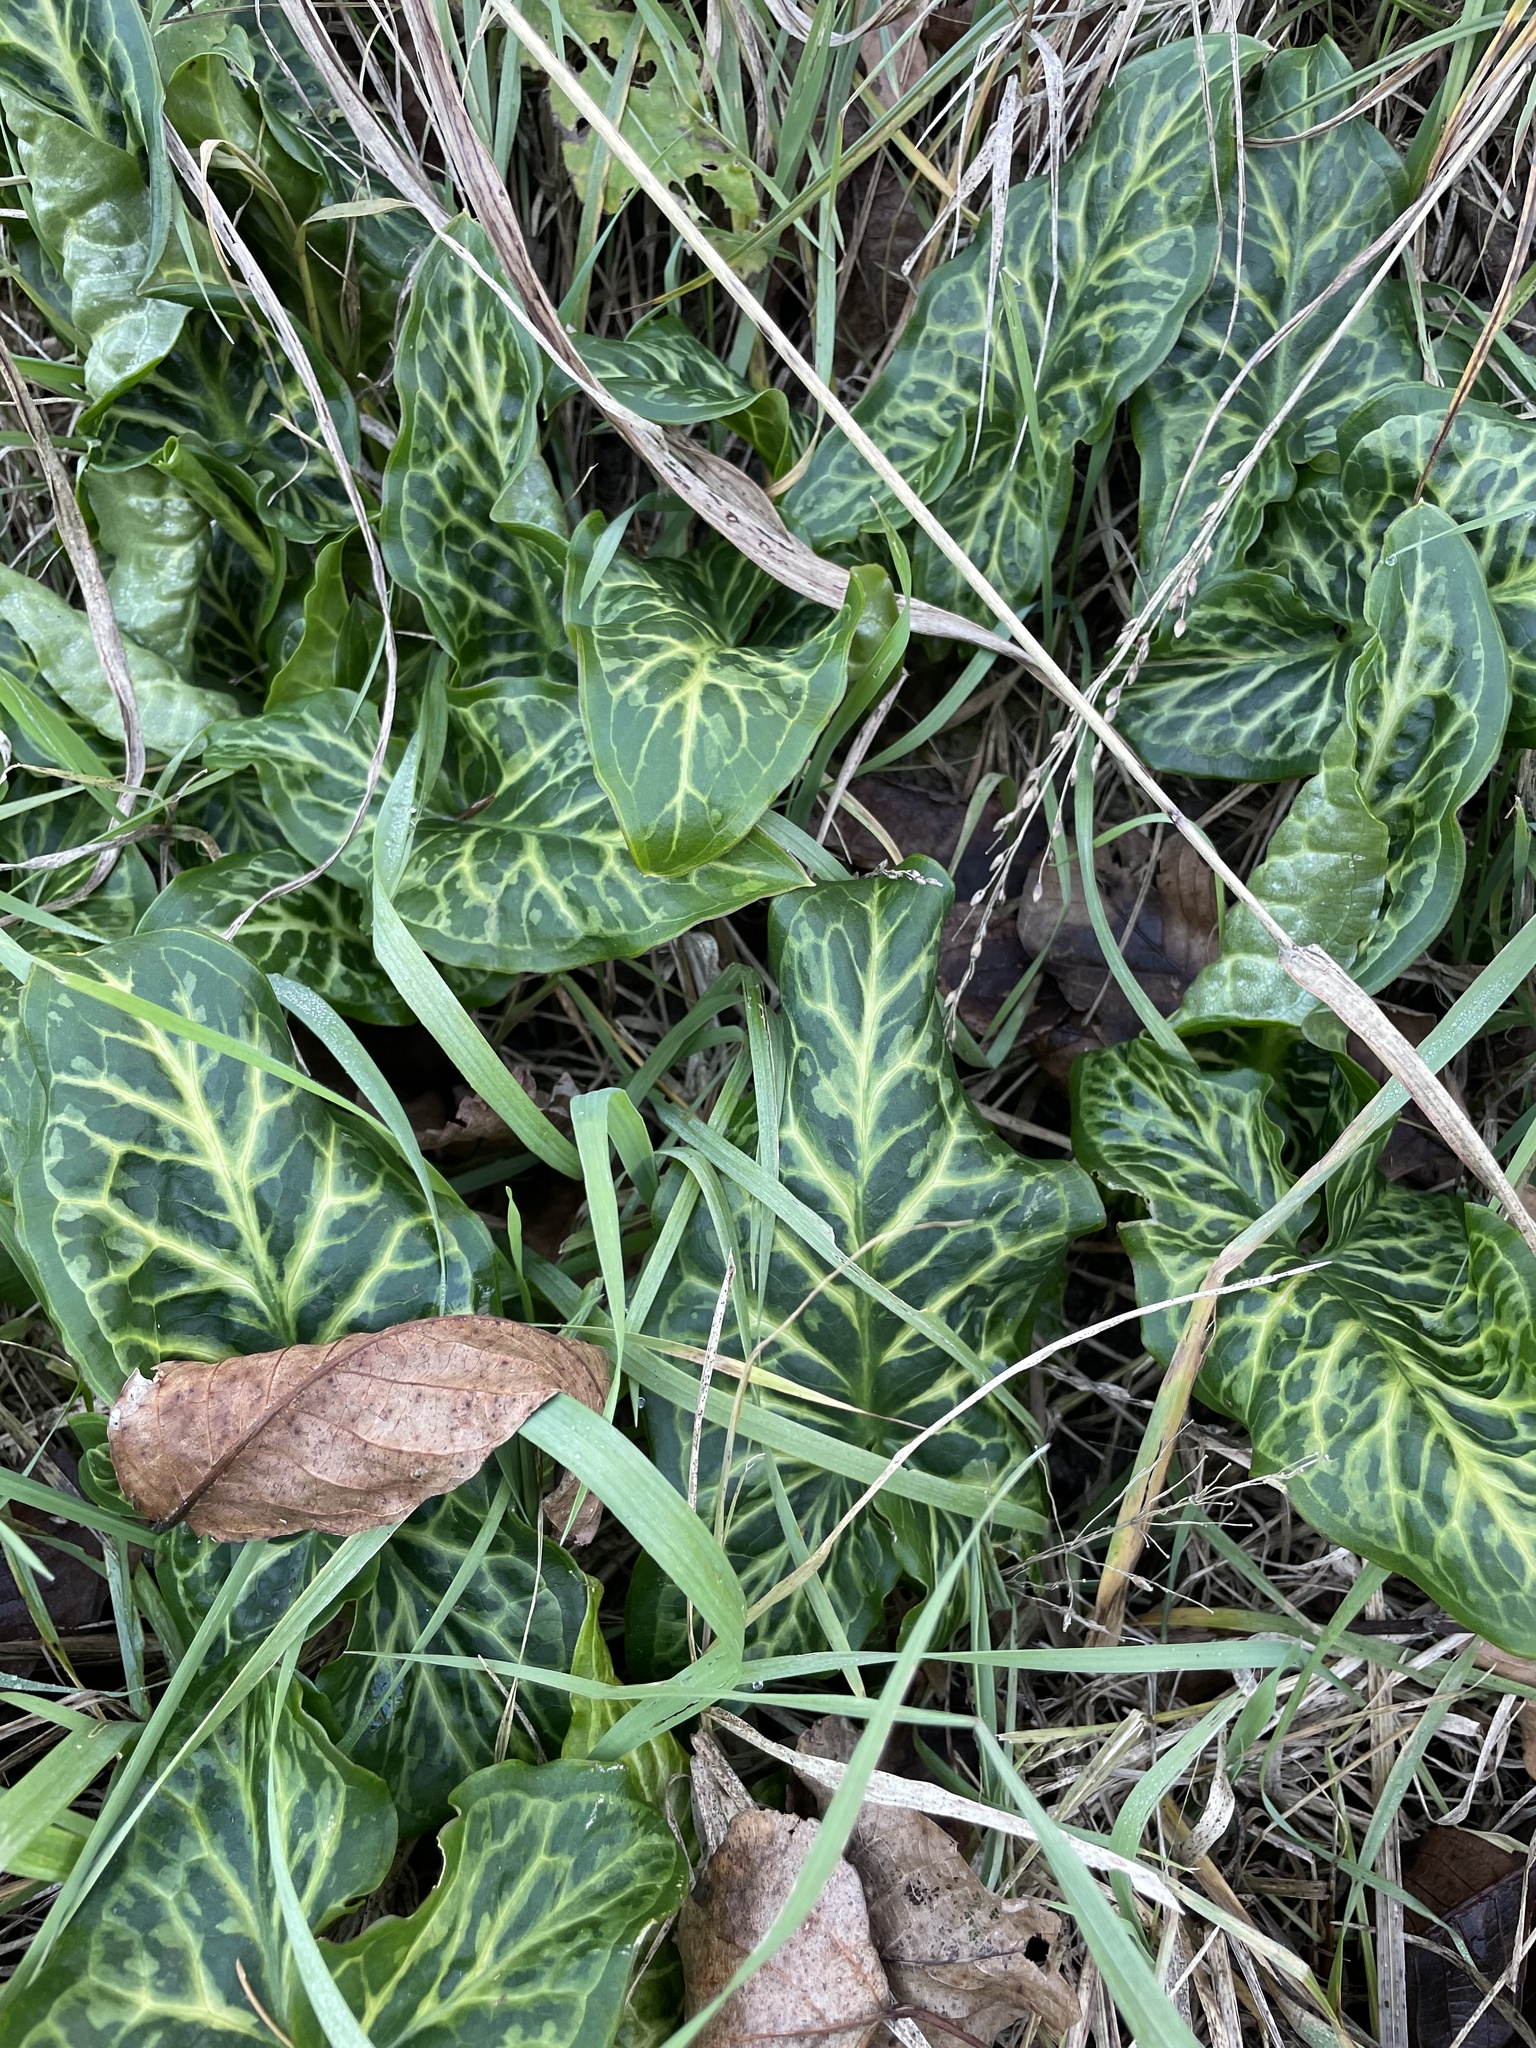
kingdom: Plantae
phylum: Tracheophyta
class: Liliopsida
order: Alismatales
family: Araceae
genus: Arum
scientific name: Arum italicum
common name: Italian lords-and-ladies
